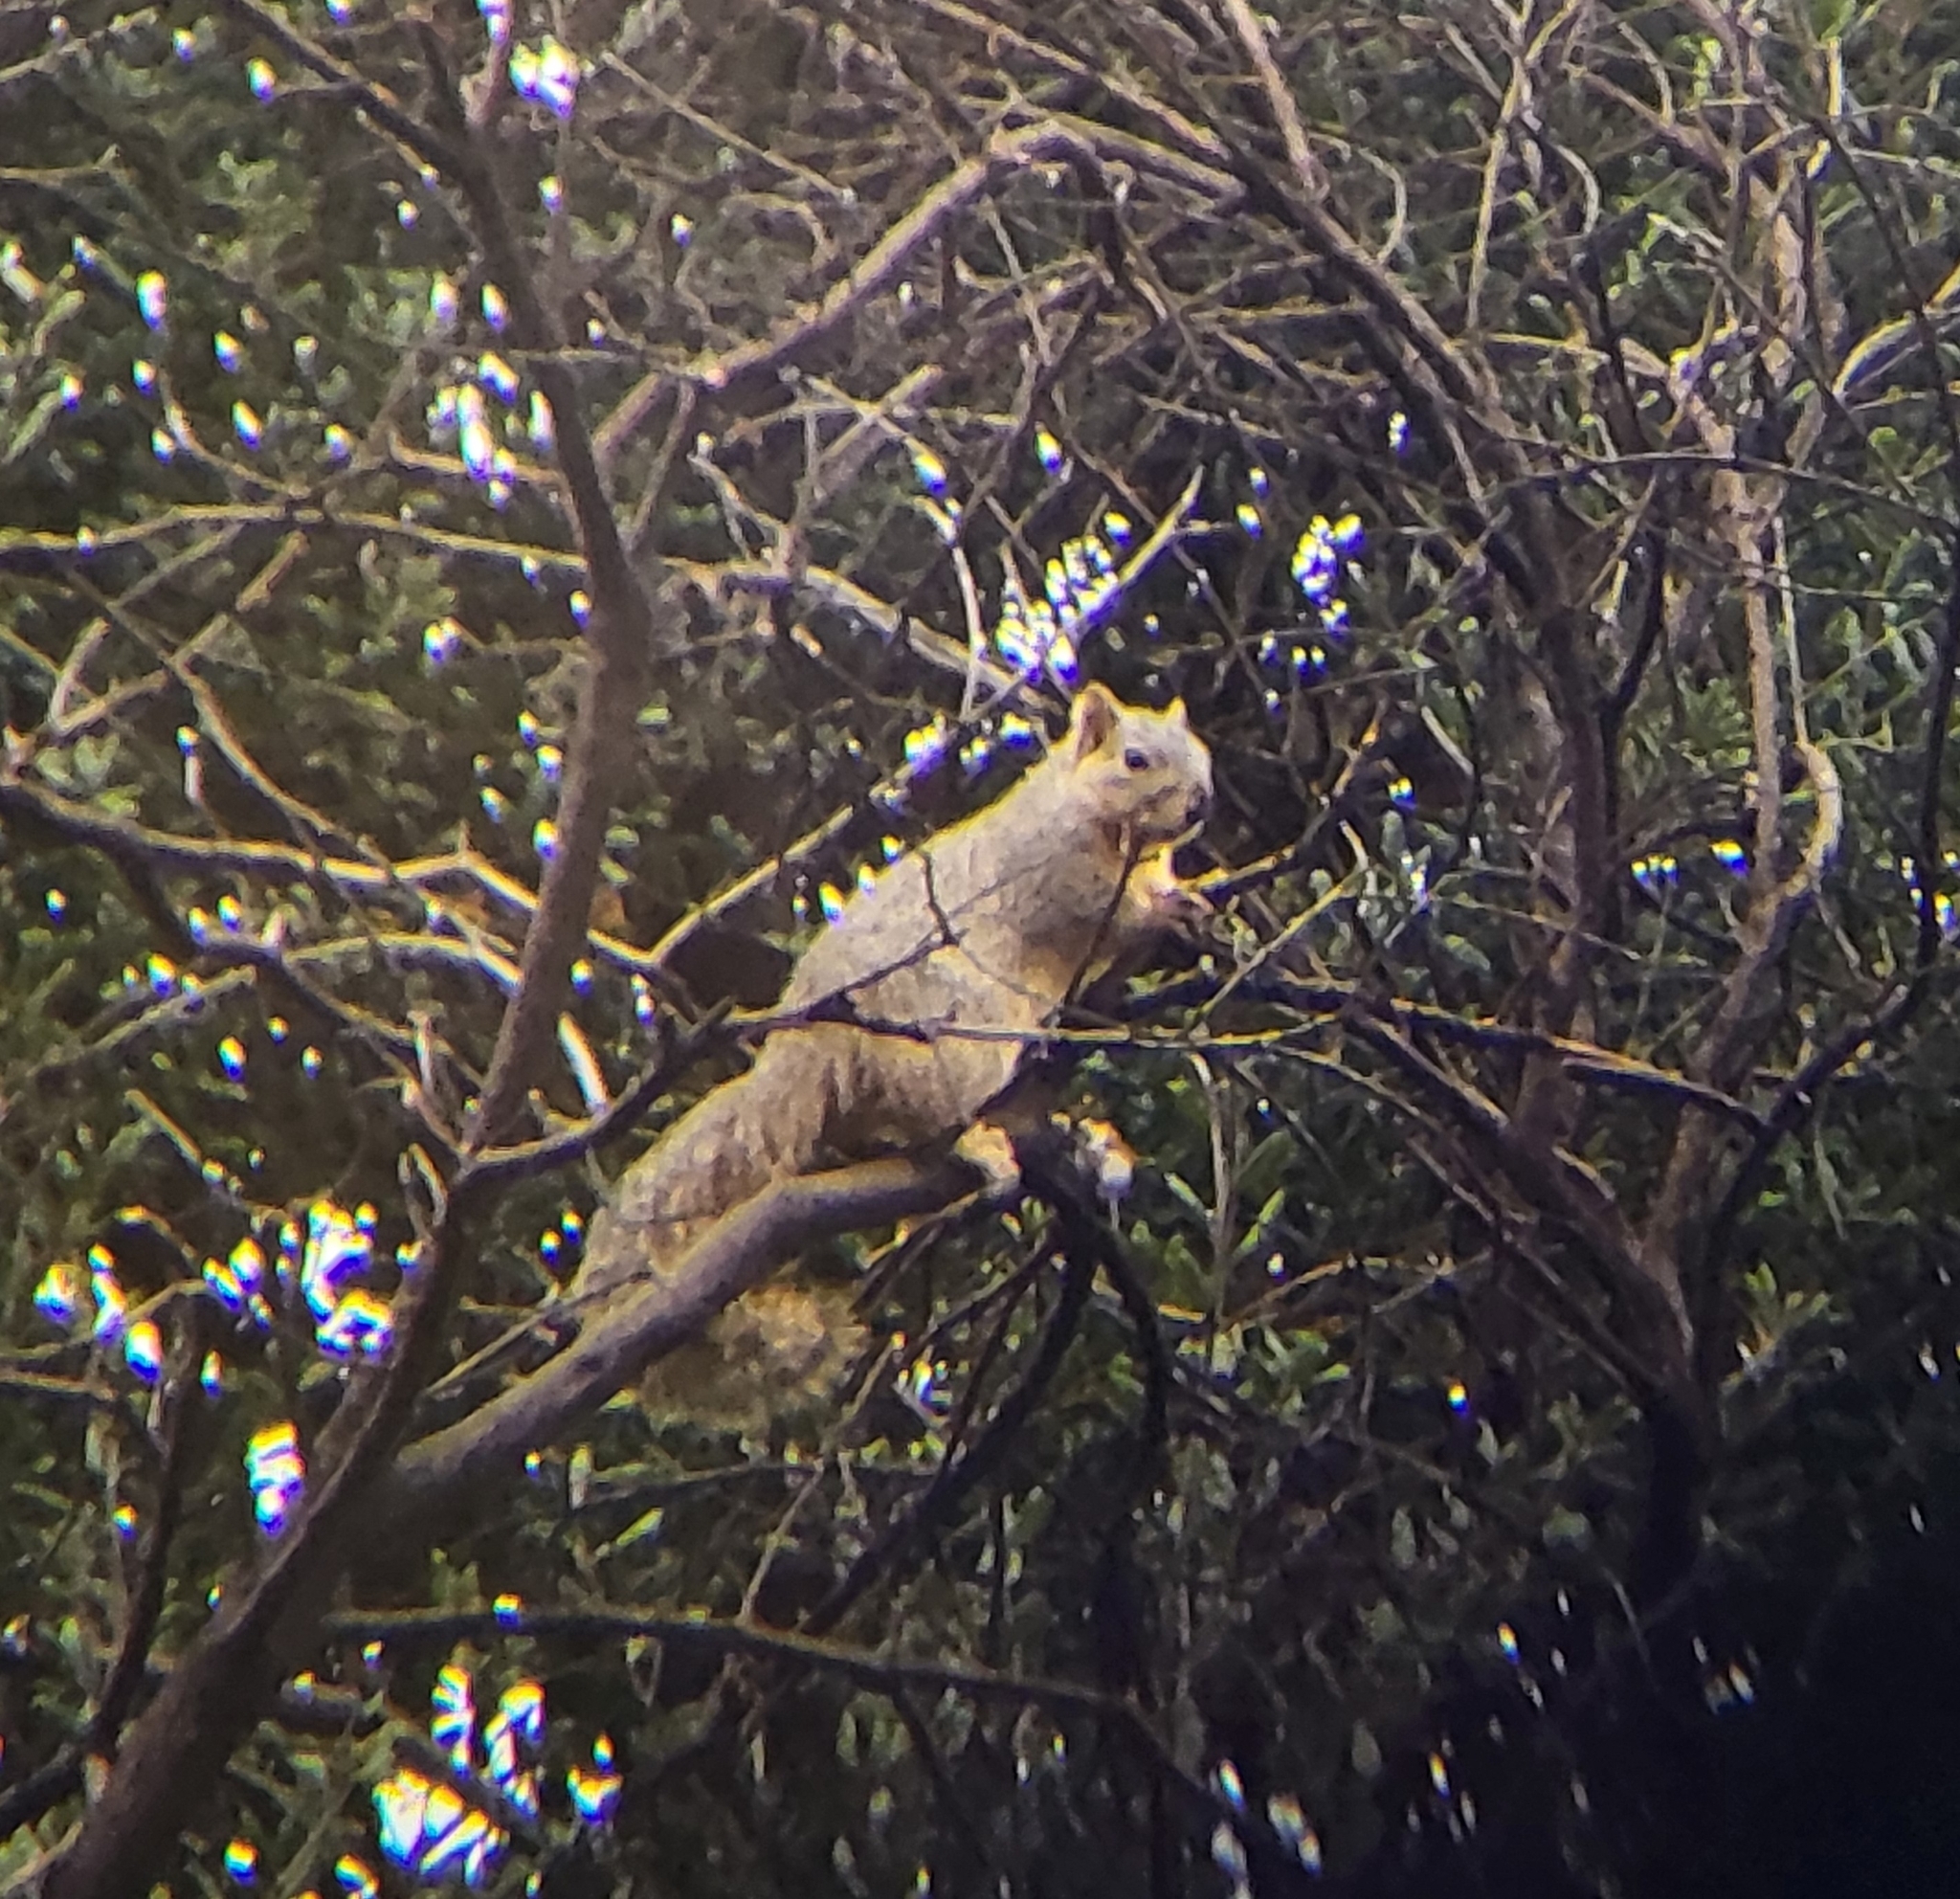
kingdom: Animalia
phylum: Chordata
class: Mammalia
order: Rodentia
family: Sciuridae
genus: Sciurus
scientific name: Sciurus niger
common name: Fox squirrel
